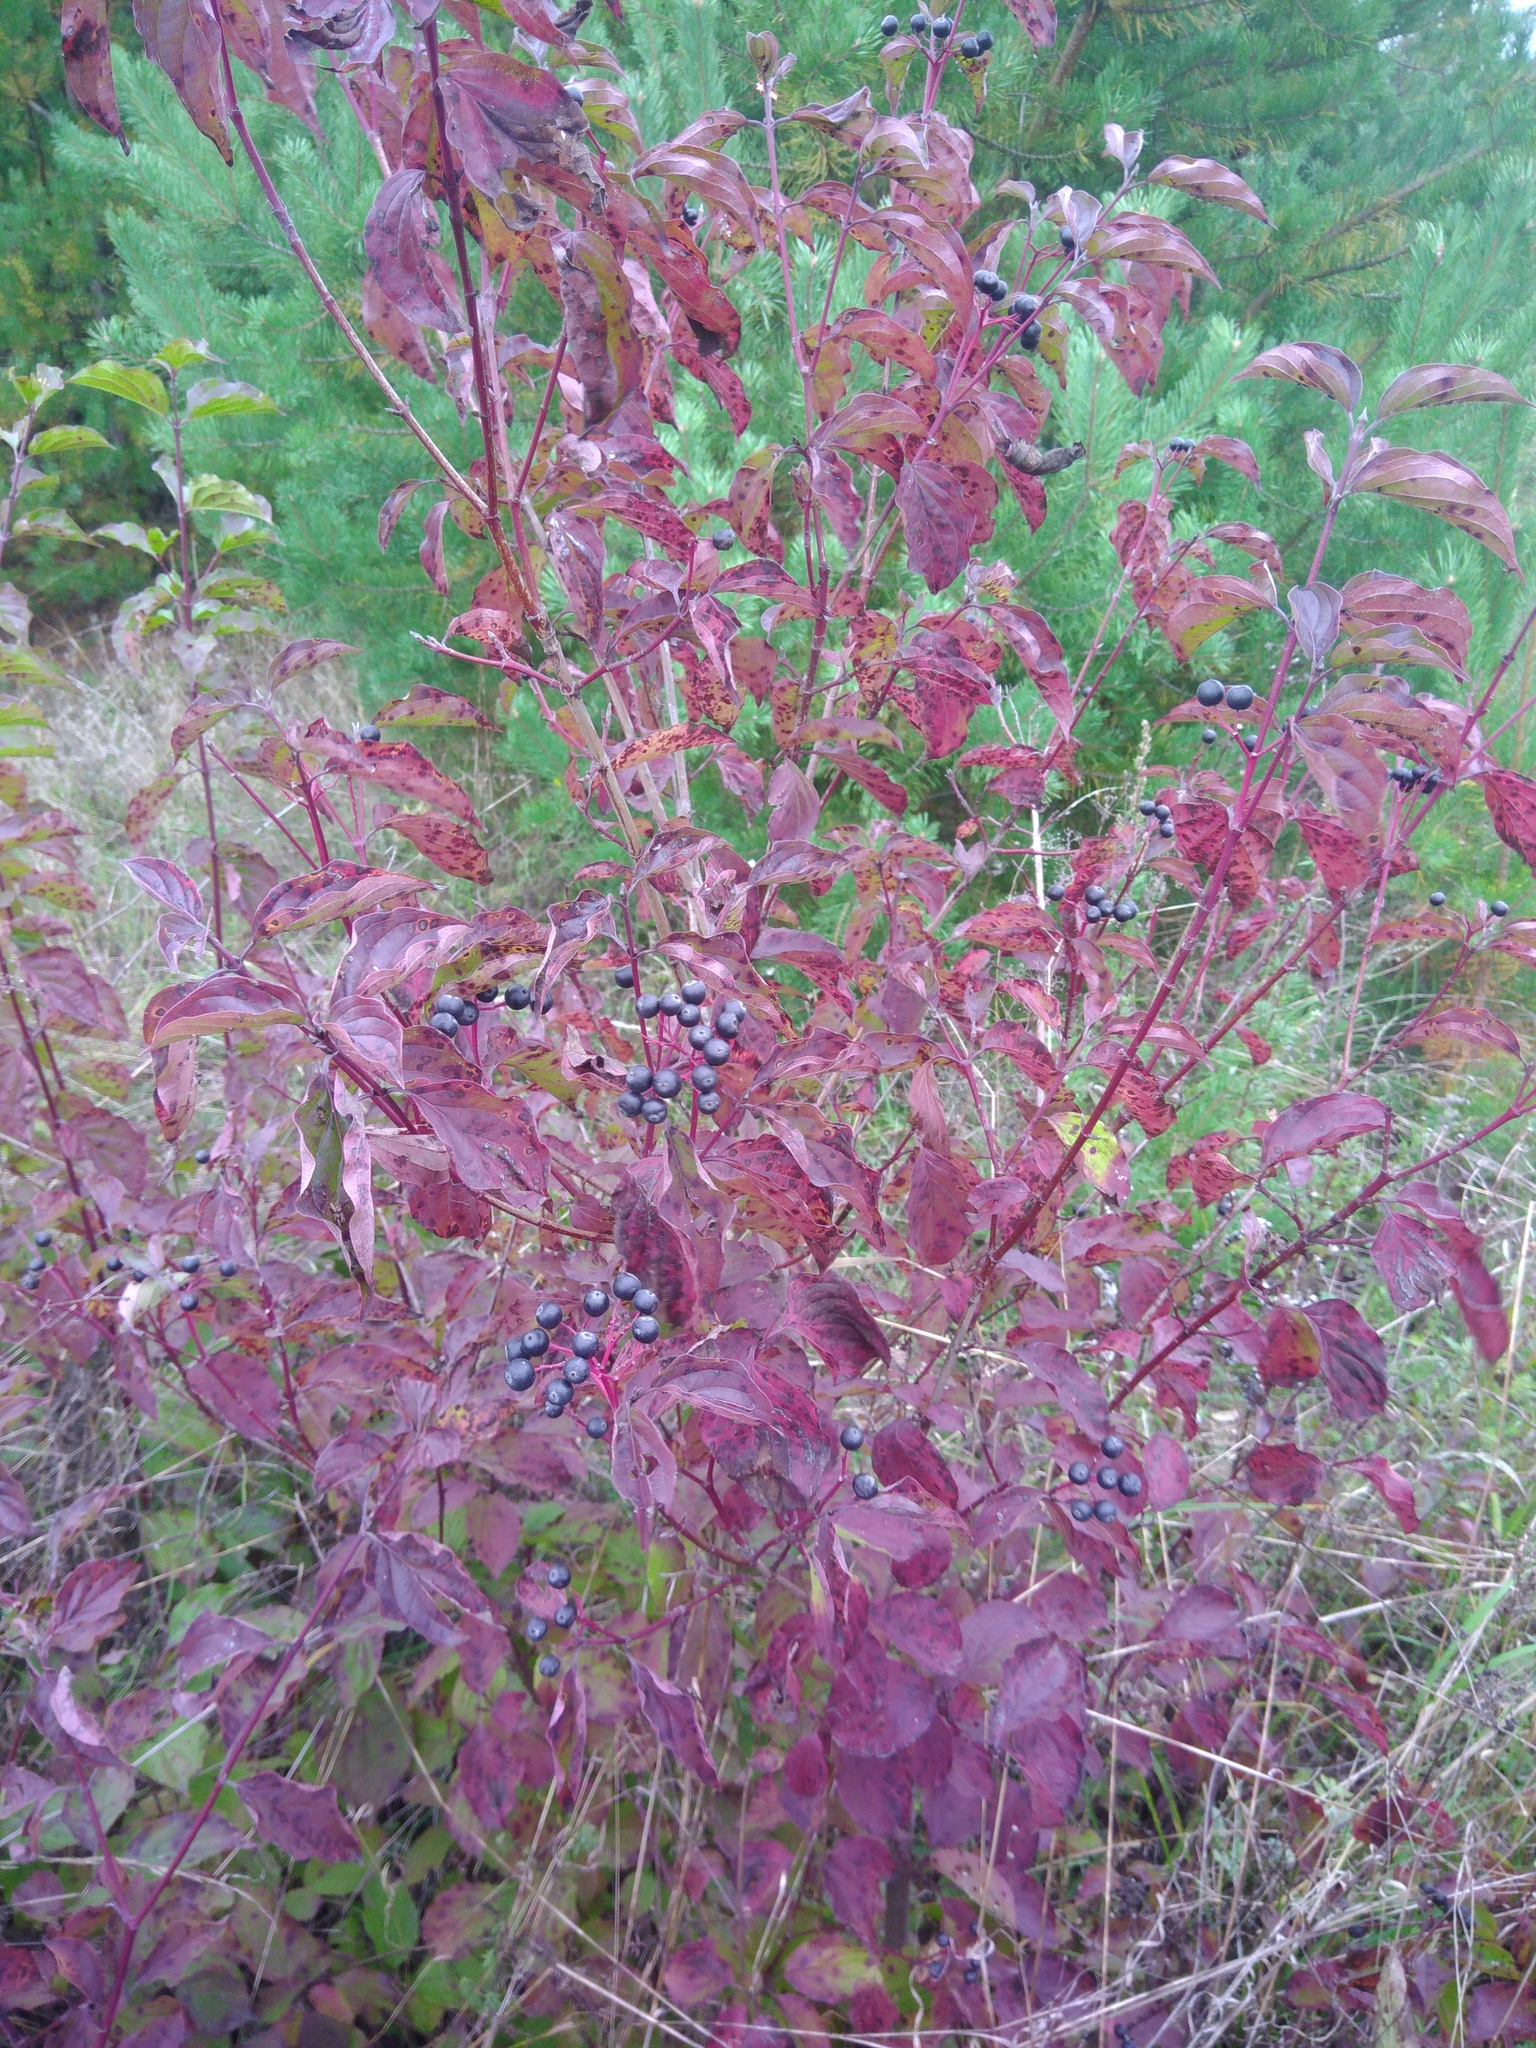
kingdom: Plantae
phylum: Tracheophyta
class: Magnoliopsida
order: Cornales
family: Cornaceae
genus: Cornus
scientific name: Cornus sanguinea
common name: Dogwood
